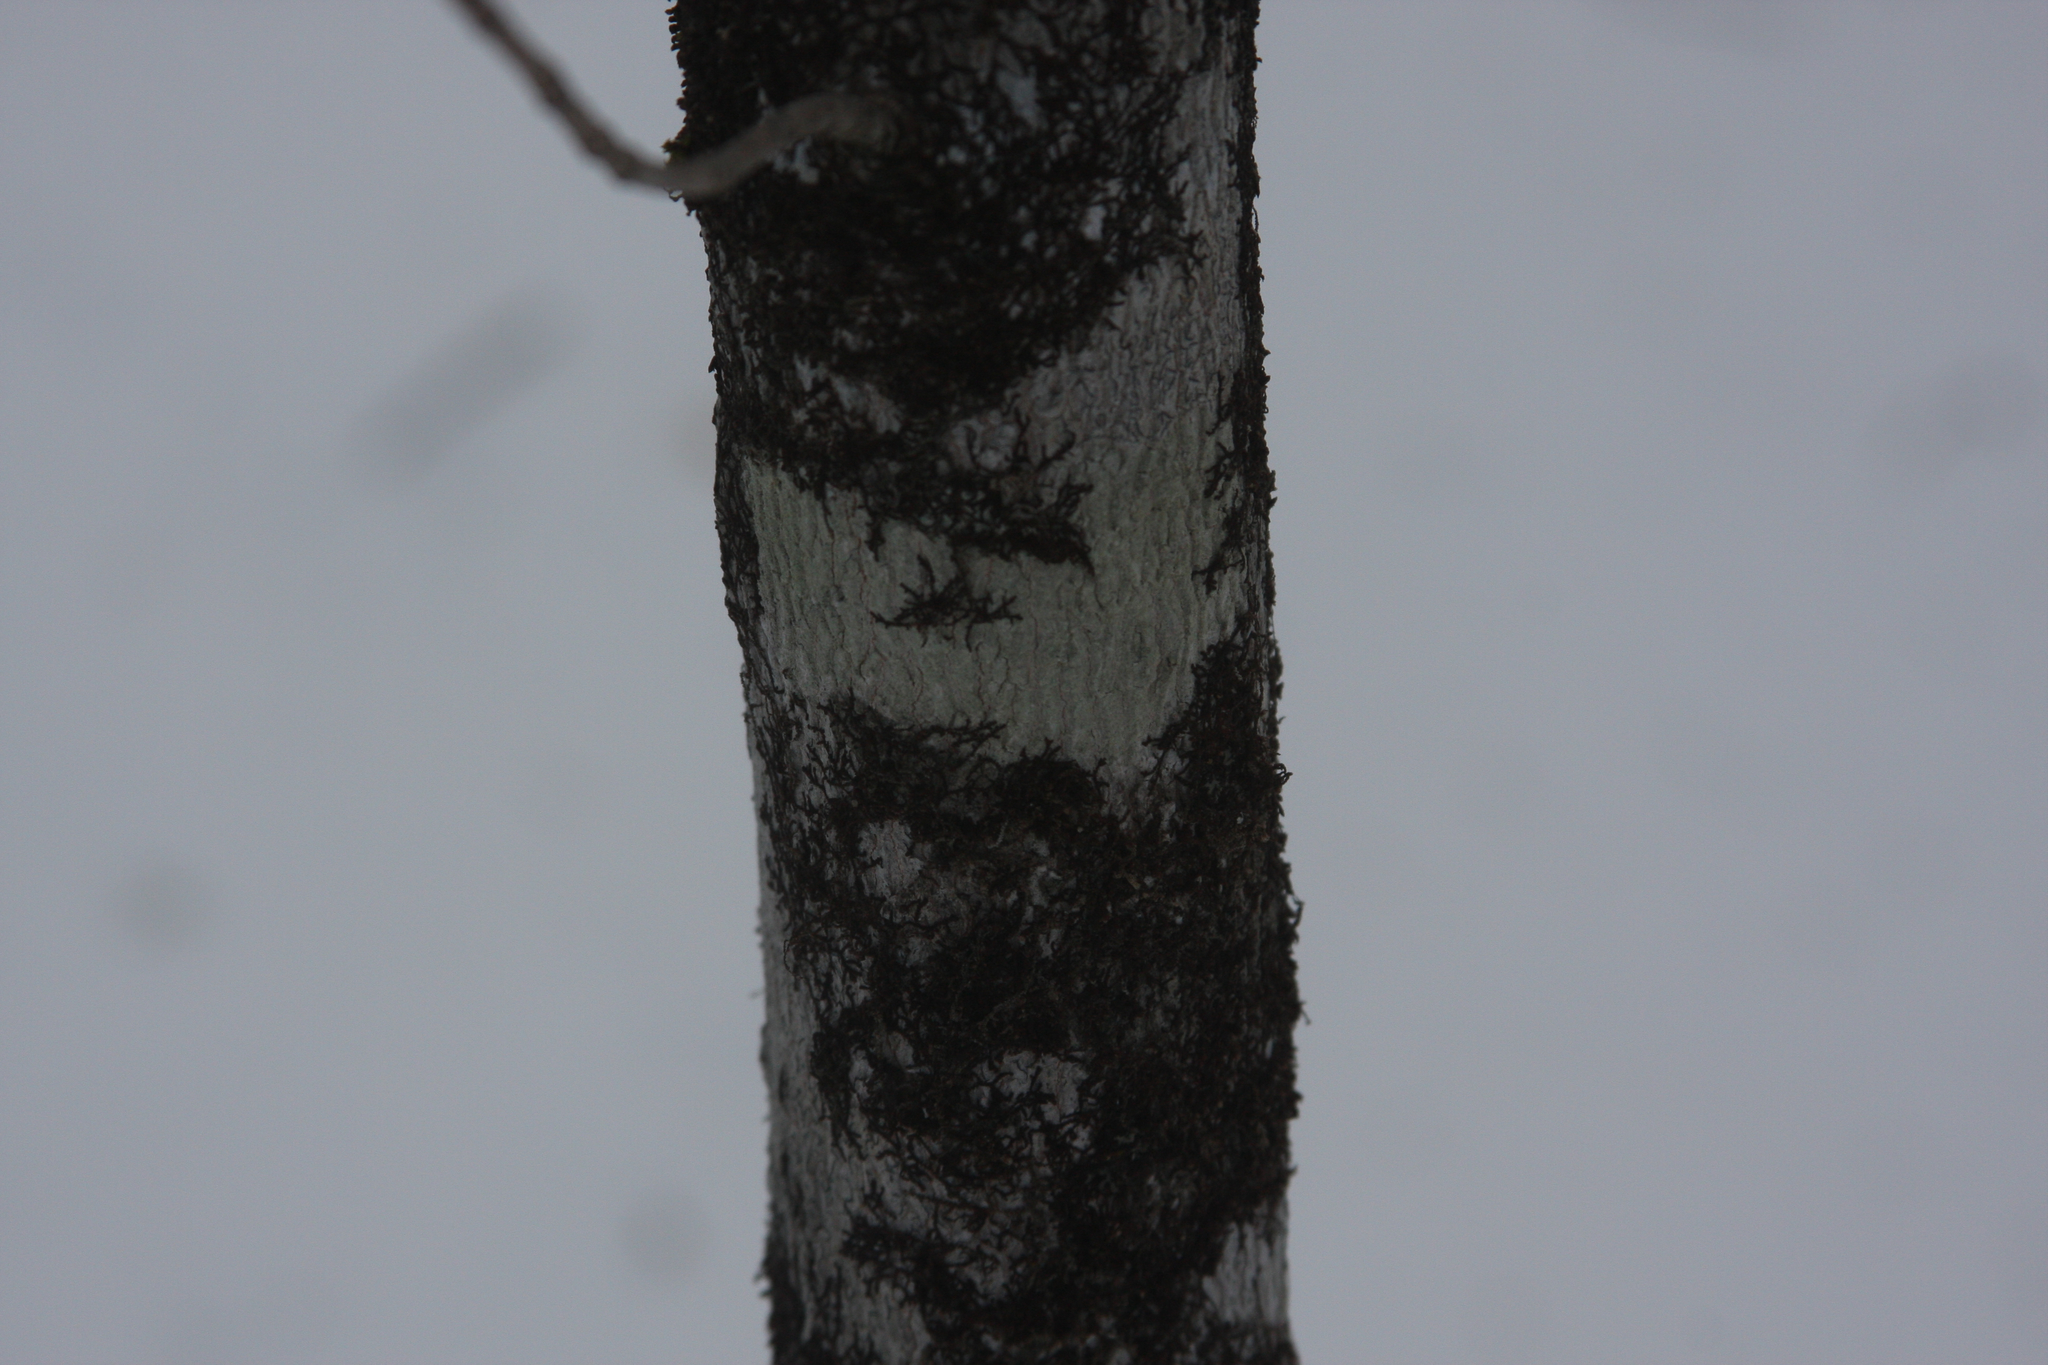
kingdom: Plantae
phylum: Marchantiophyta
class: Jungermanniopsida
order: Porellales
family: Frullaniaceae
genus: Frullania
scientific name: Frullania eboracensis
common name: New york scalewort
